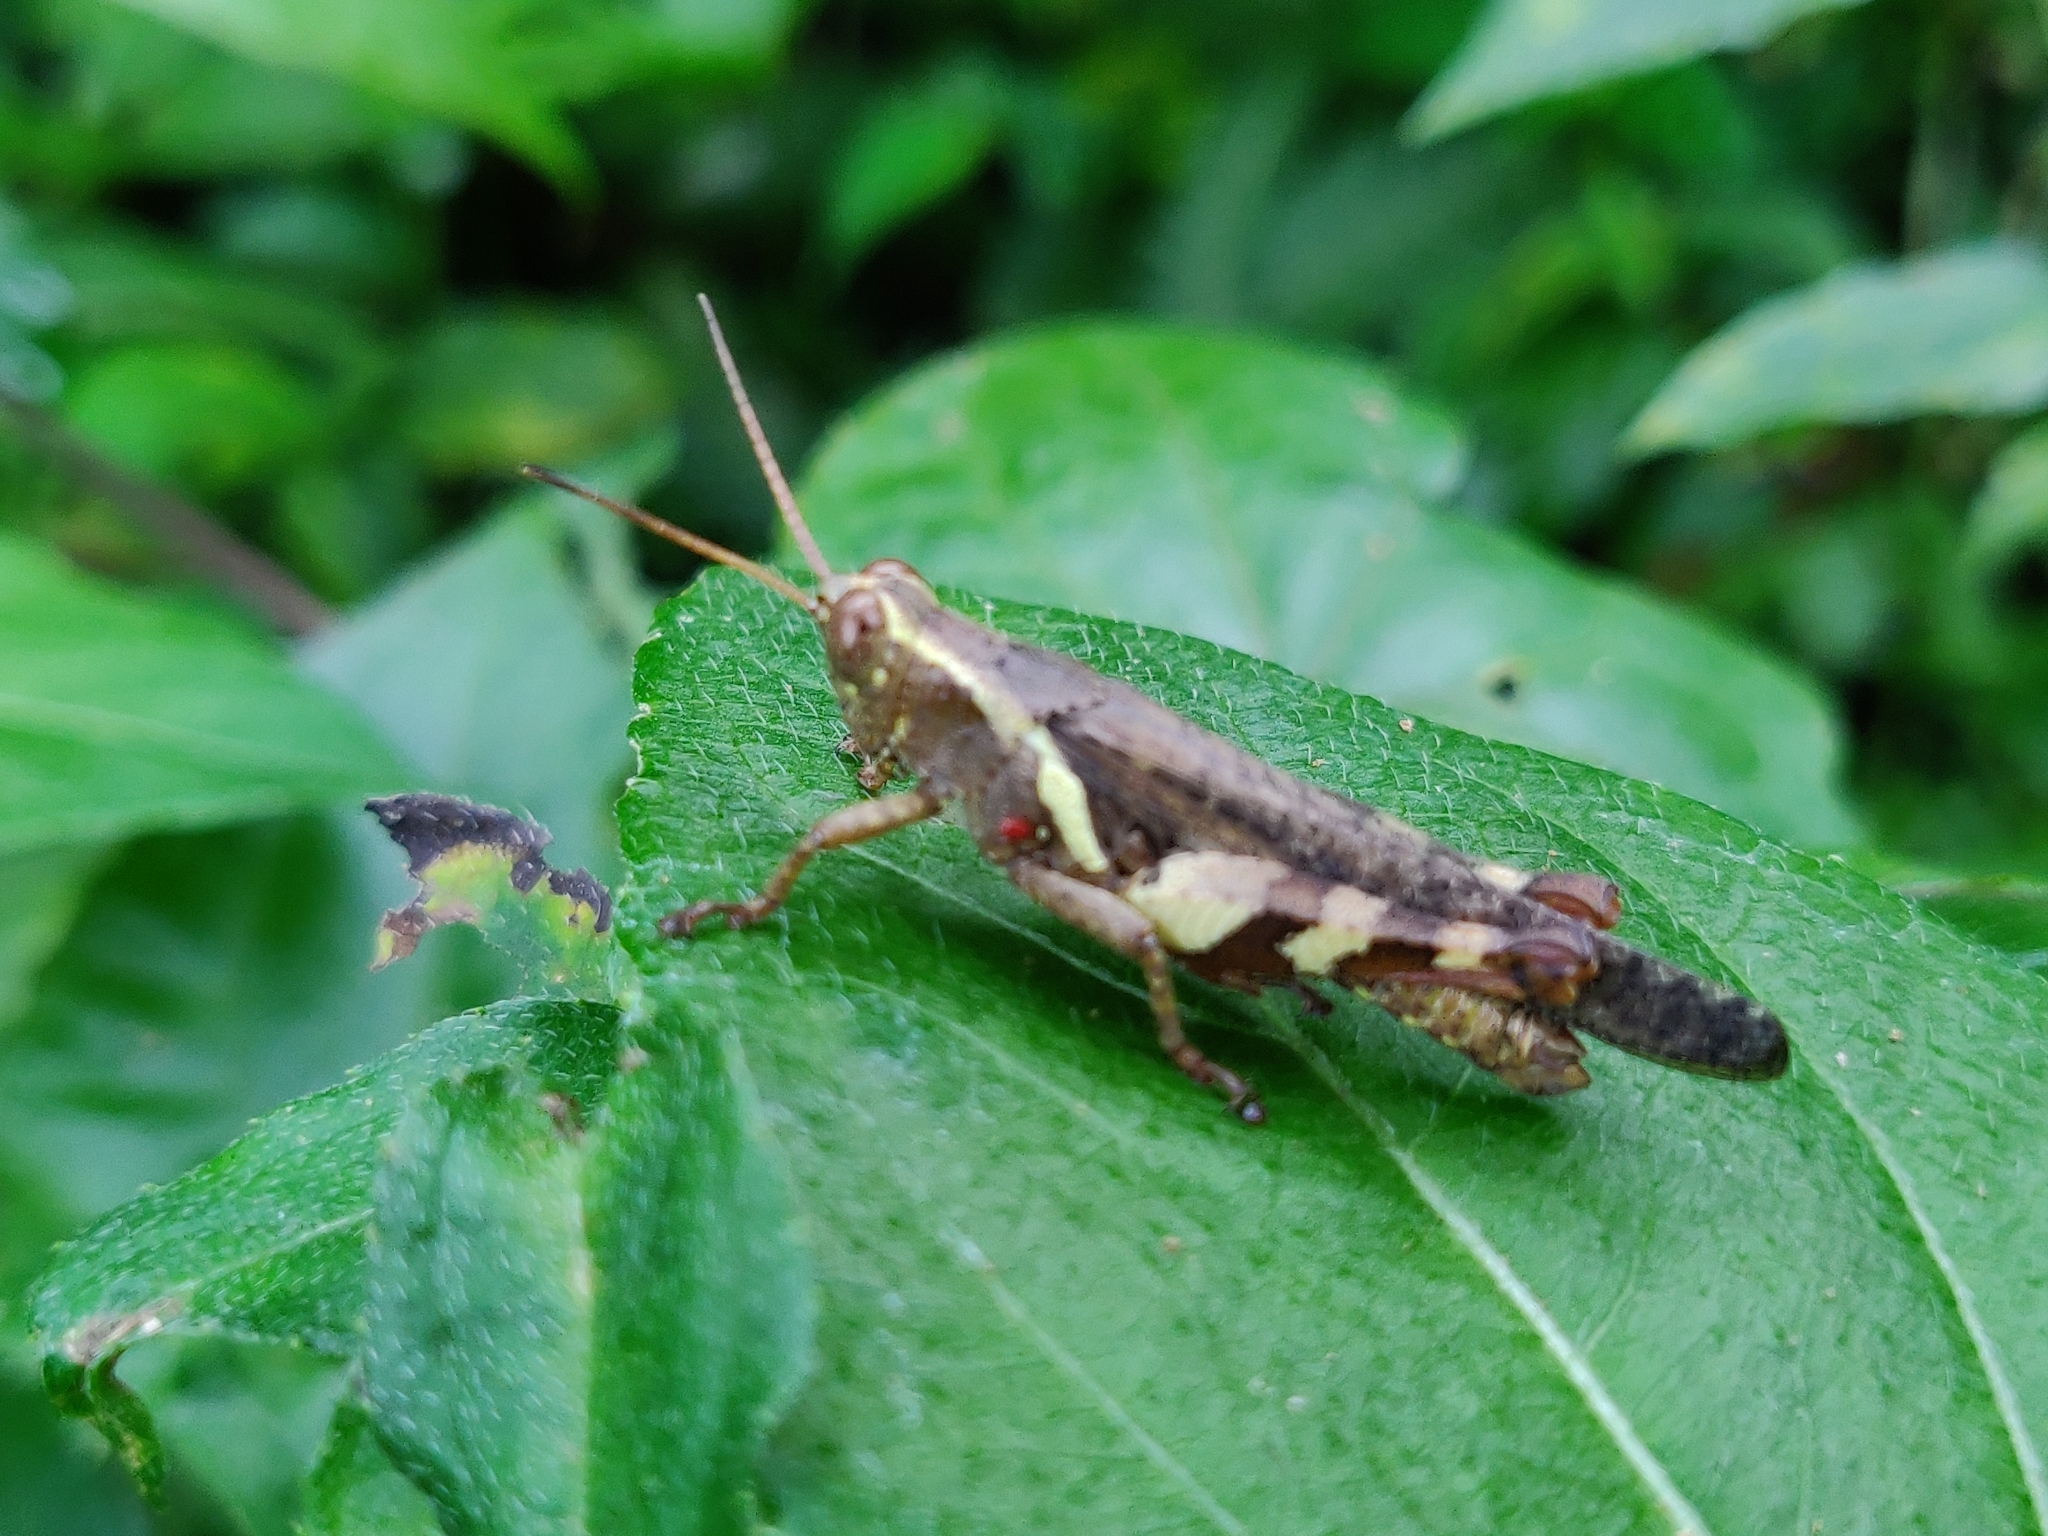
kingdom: Animalia
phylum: Arthropoda
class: Insecta
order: Orthoptera
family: Acrididae
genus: Xenocatantops
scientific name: Xenocatantops humile
